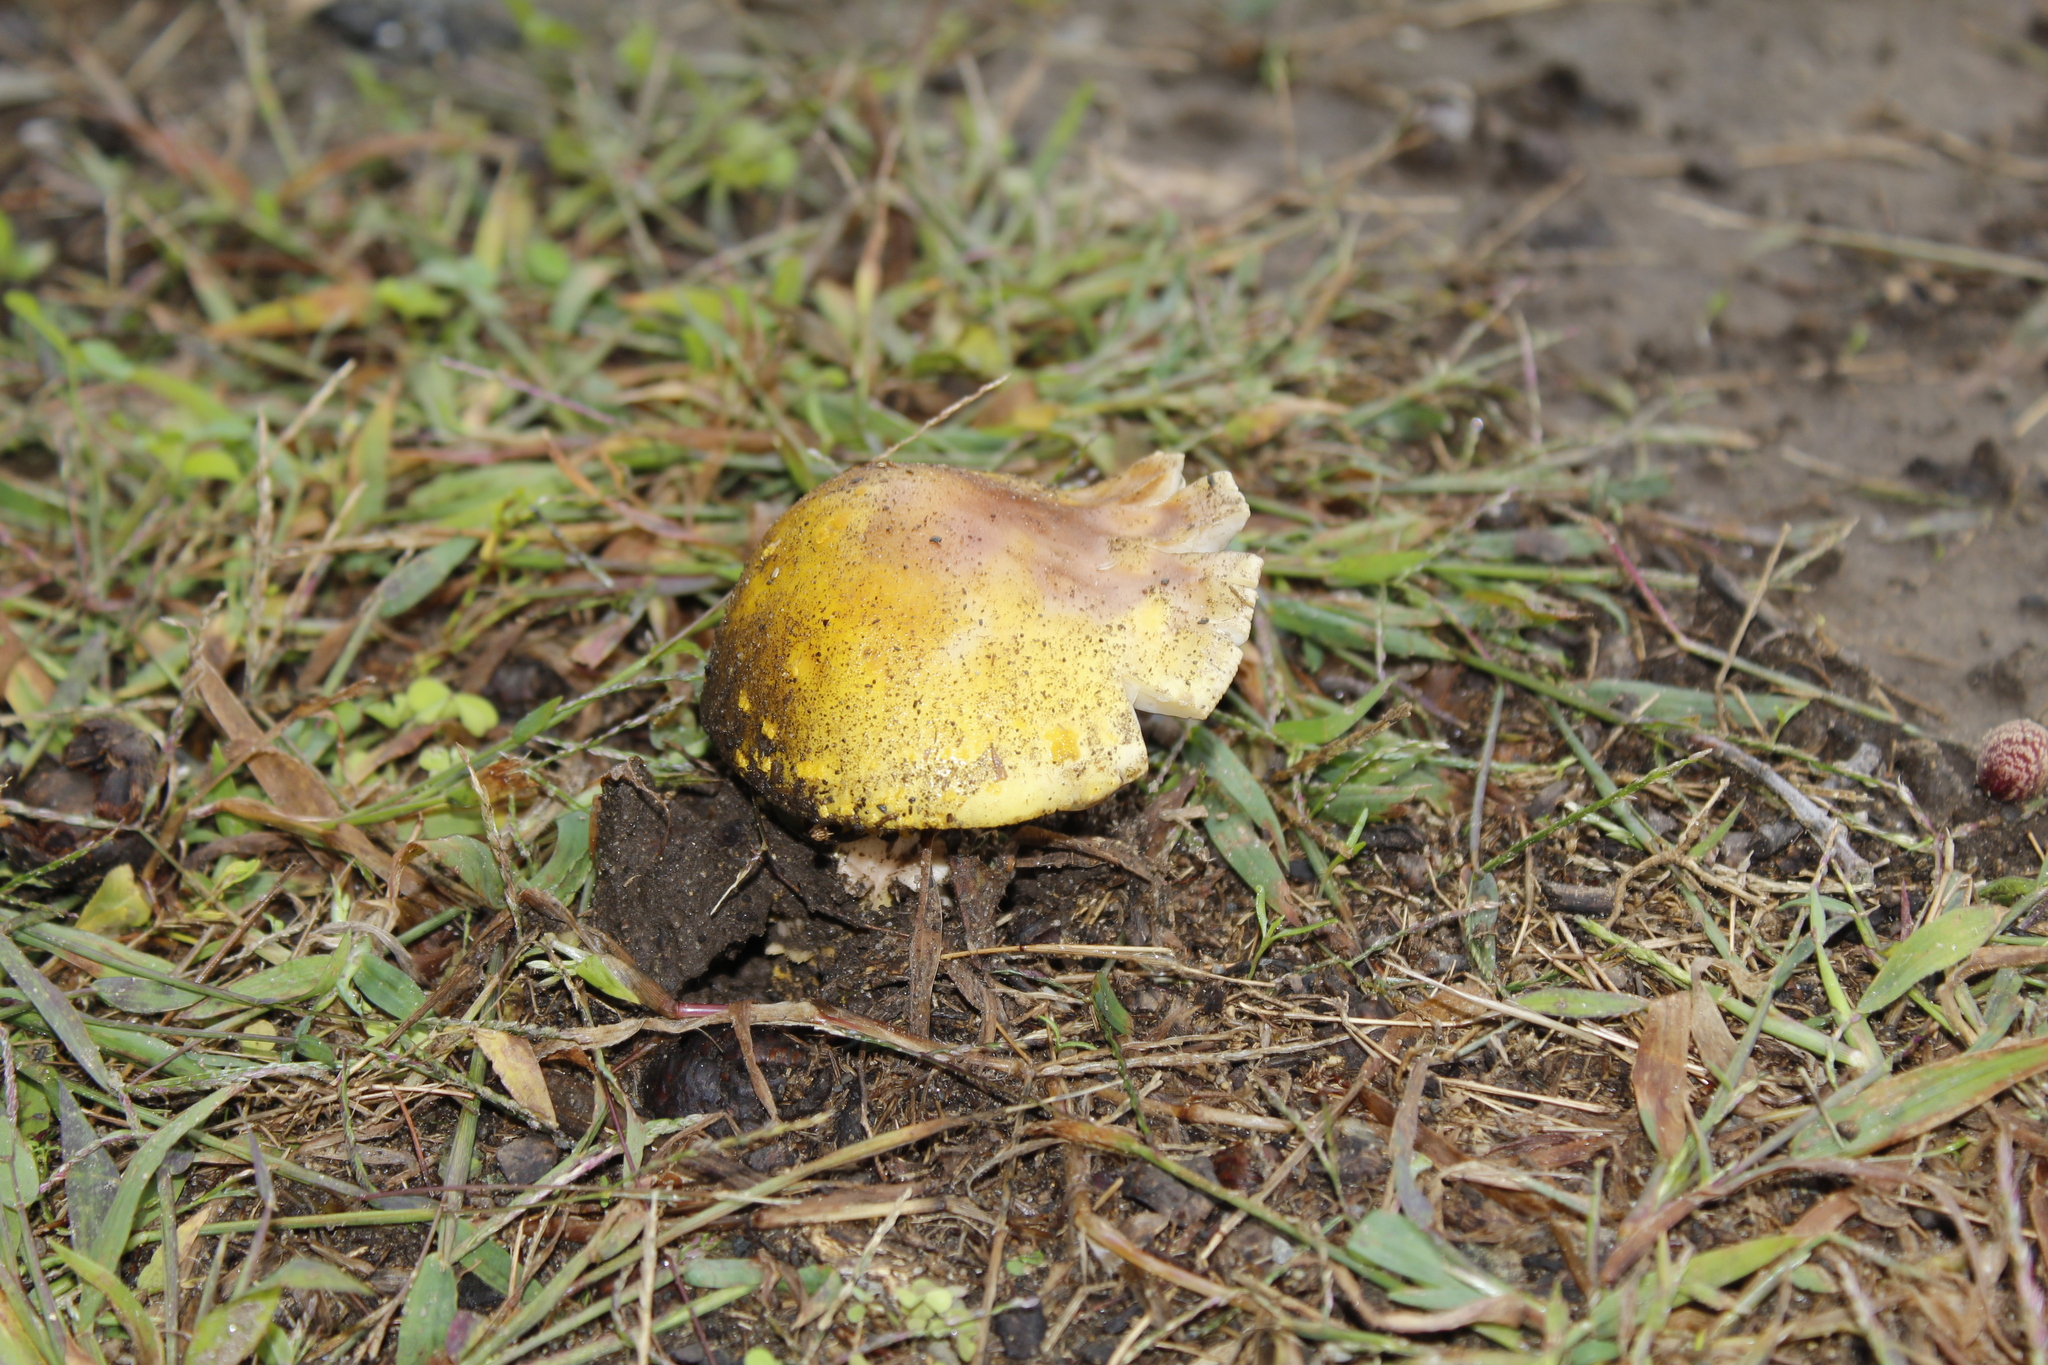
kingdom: Fungi
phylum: Basidiomycota
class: Agaricomycetes
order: Agaricales
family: Amanitaceae
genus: Amanita
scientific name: Amanita flavorubens
